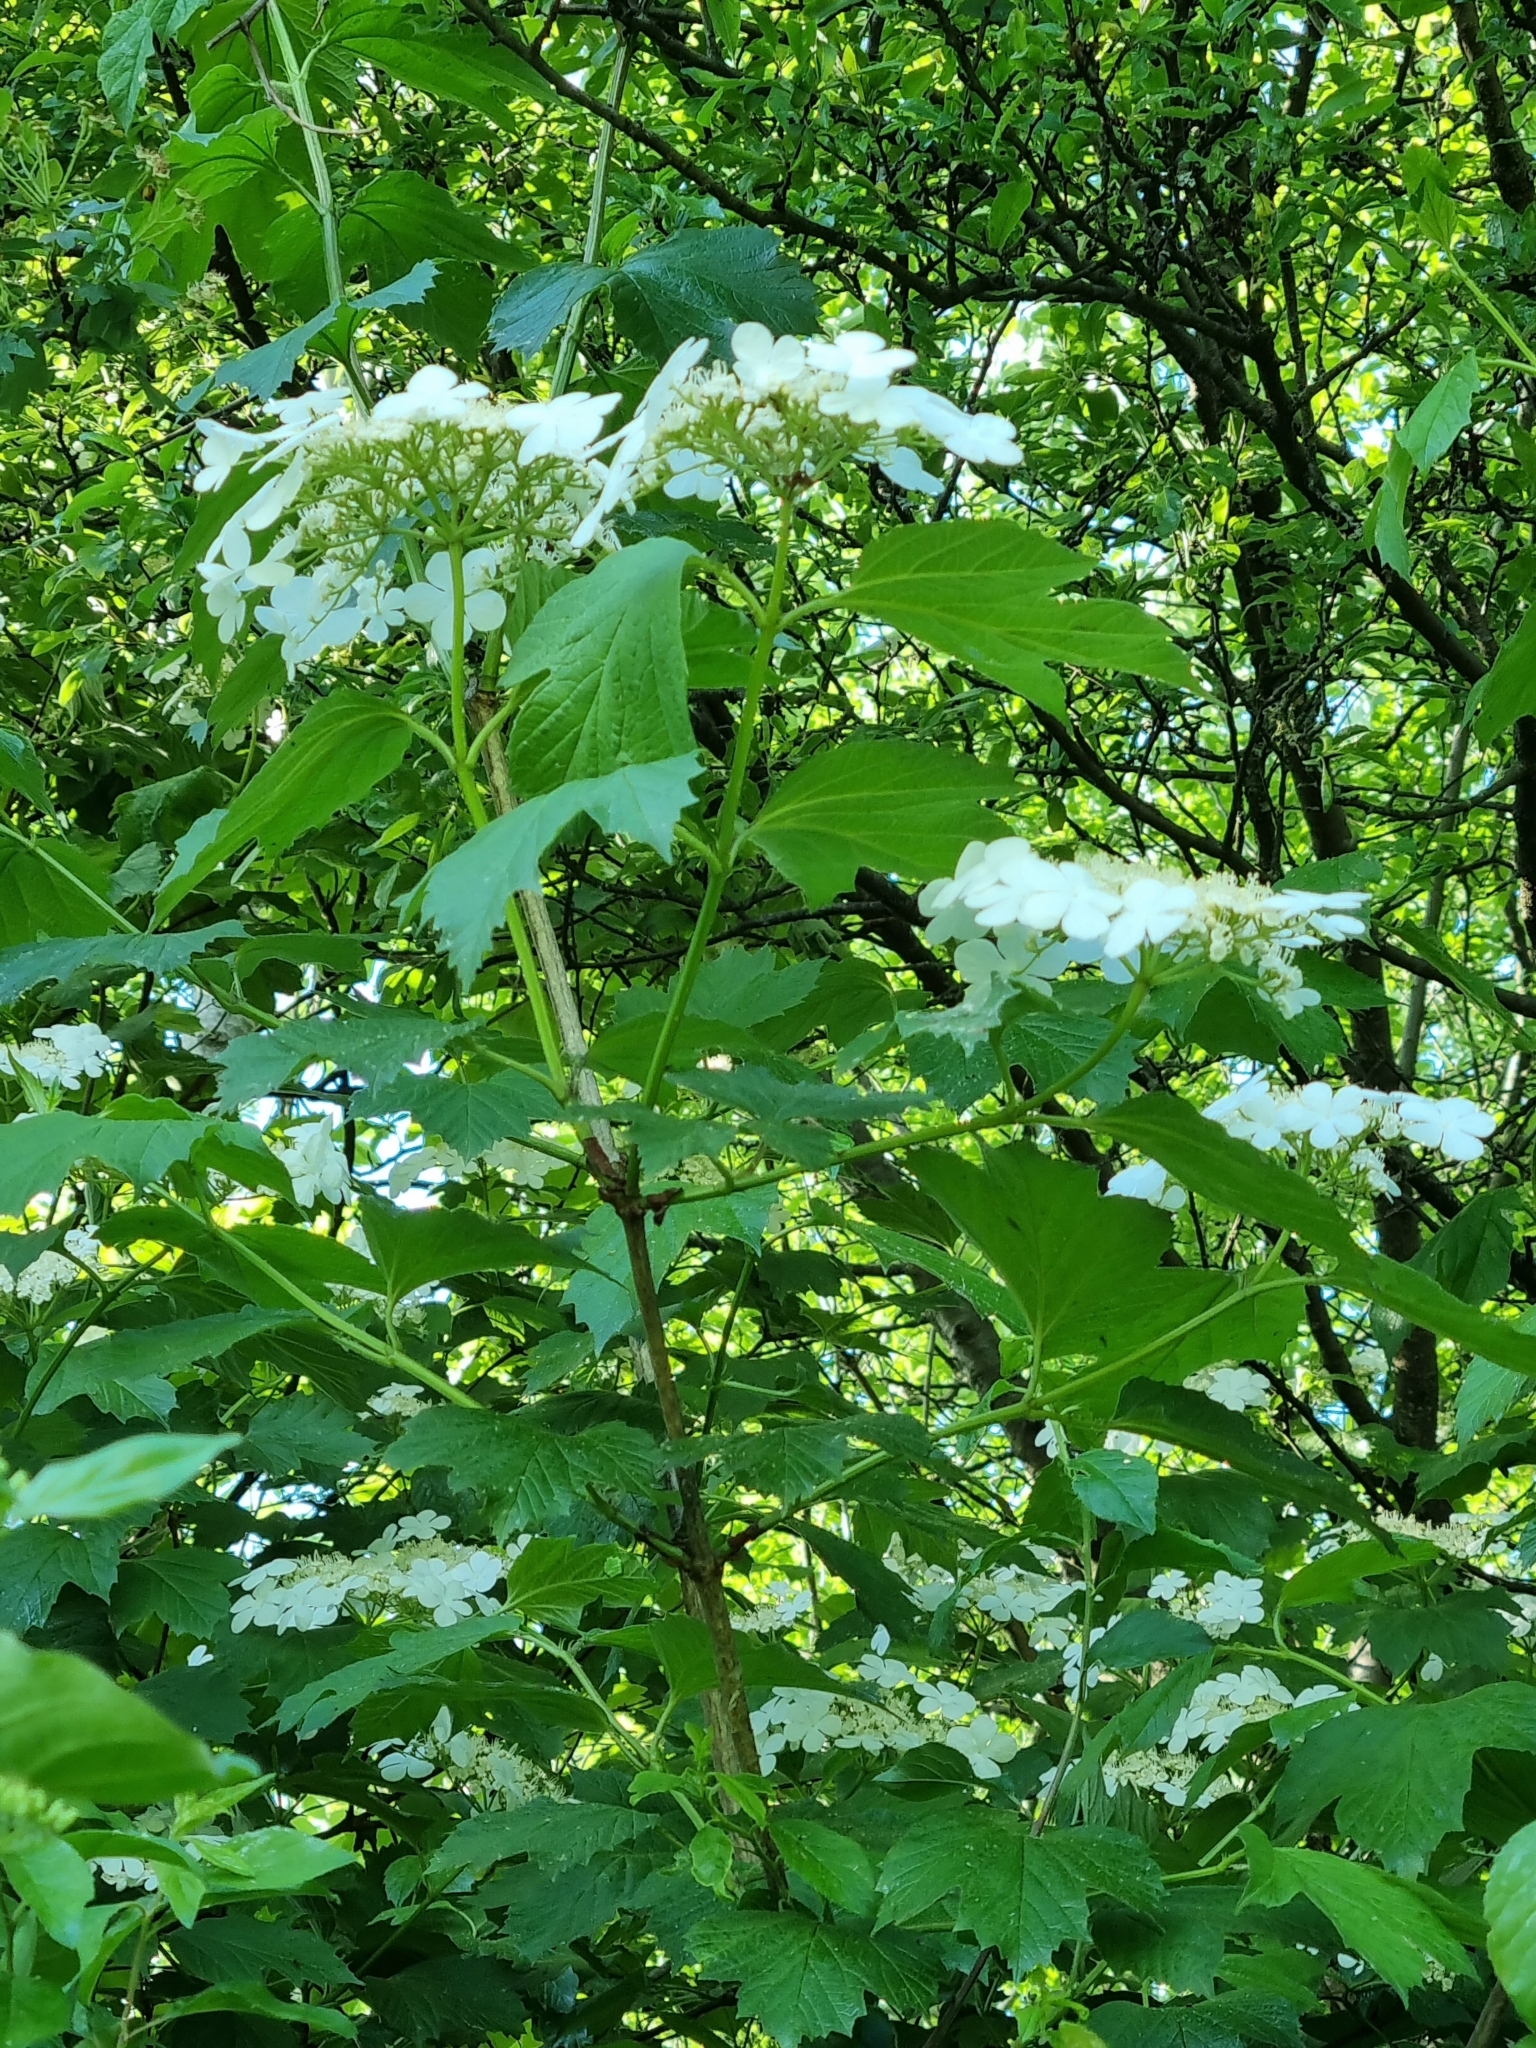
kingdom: Plantae
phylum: Tracheophyta
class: Magnoliopsida
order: Dipsacales
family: Viburnaceae
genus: Viburnum
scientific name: Viburnum opulus
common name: Guelder-rose
